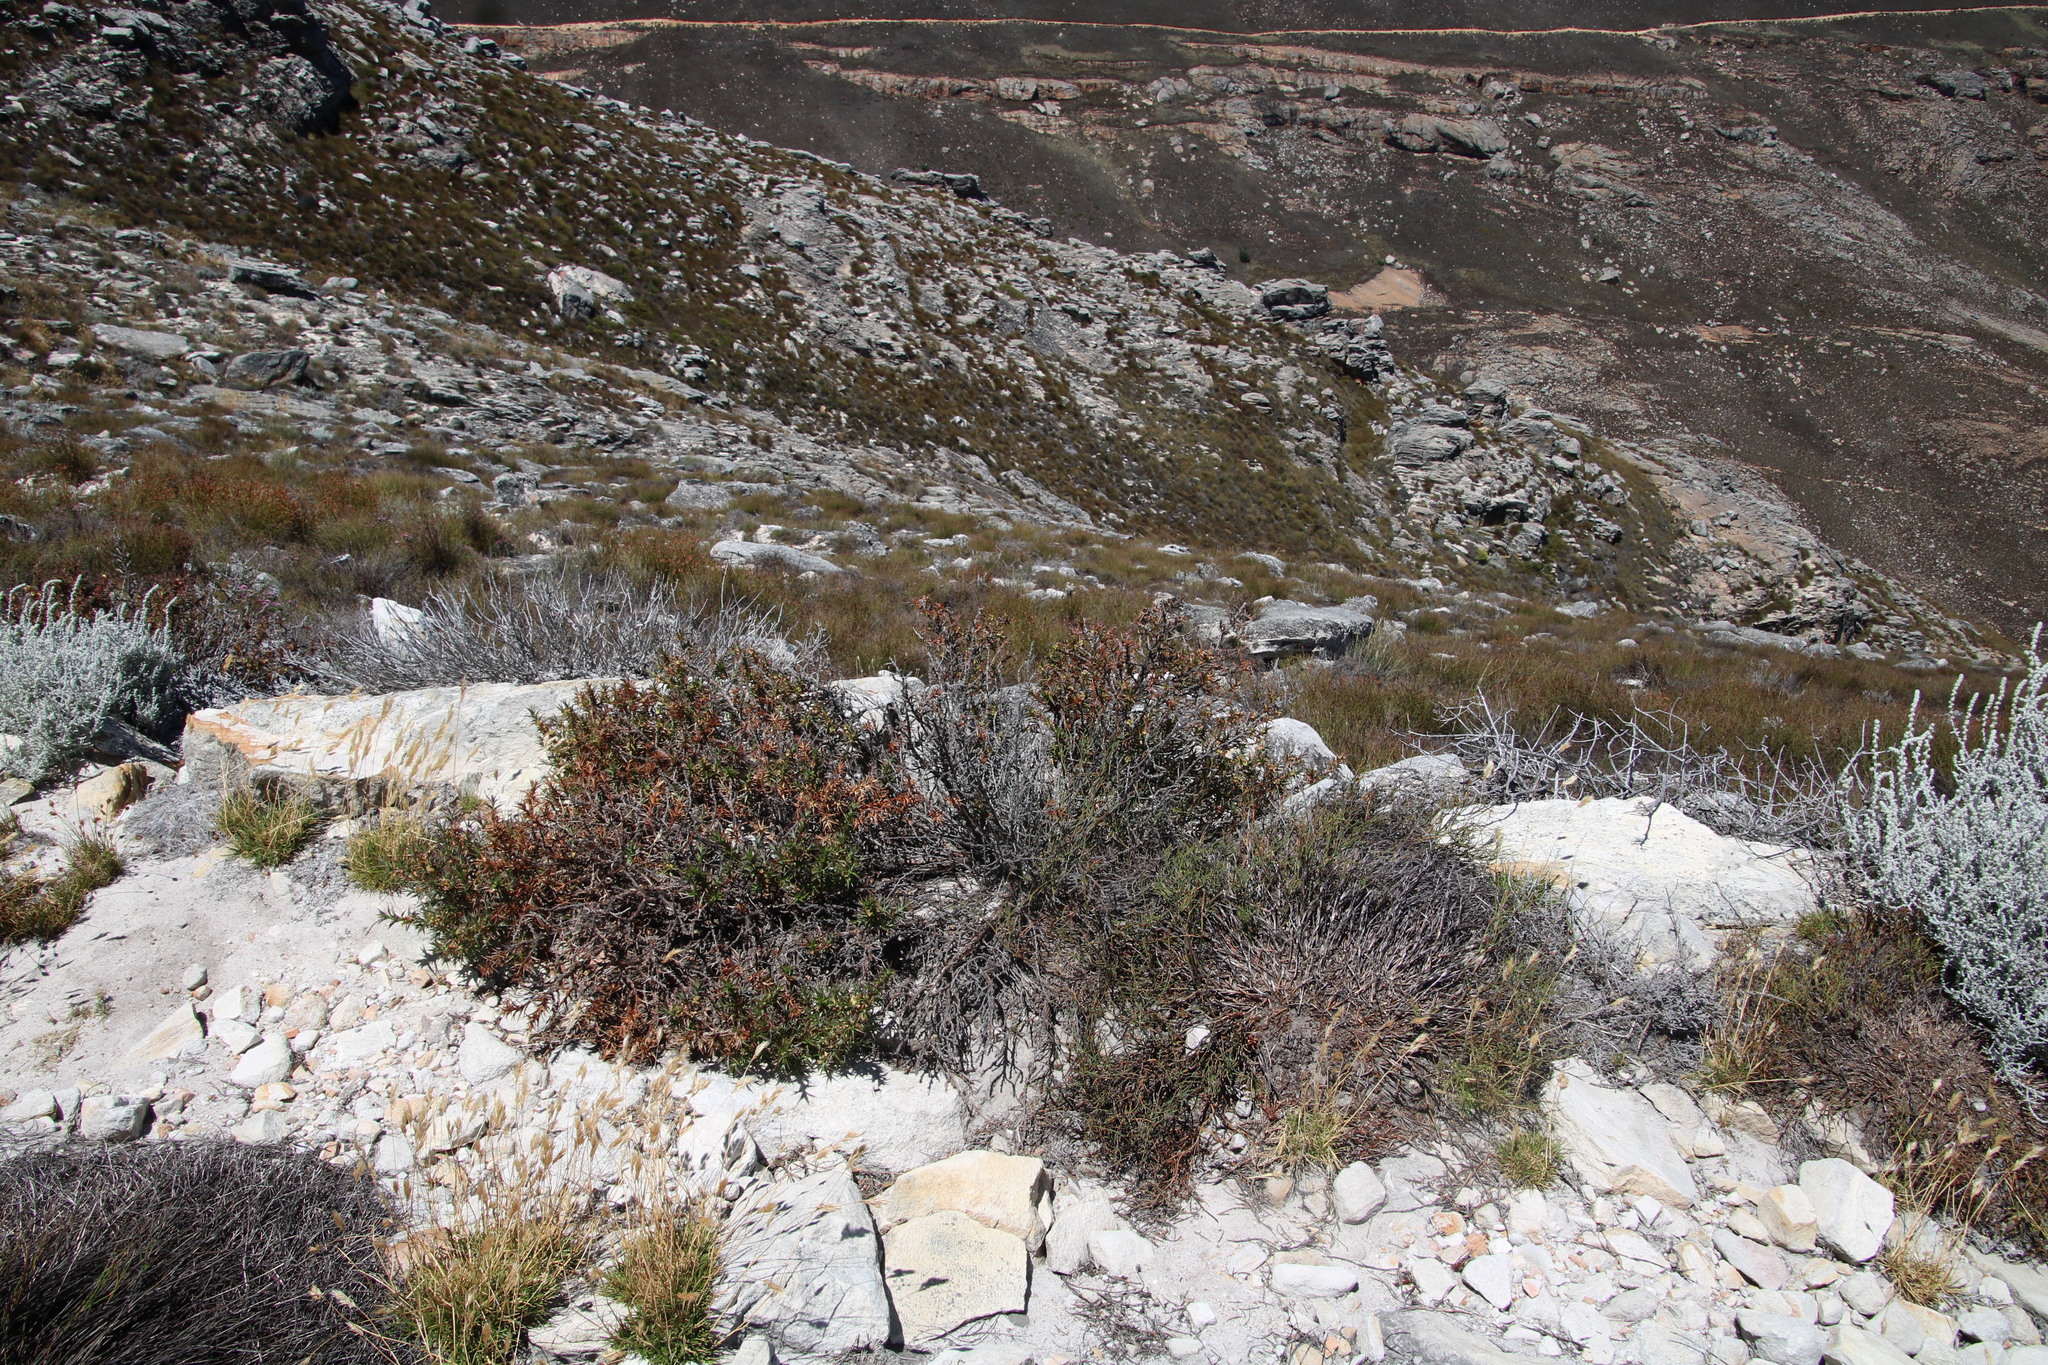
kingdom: Plantae
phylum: Tracheophyta
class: Magnoliopsida
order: Rosales
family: Rosaceae
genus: Cliffortia
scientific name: Cliffortia dregeana
